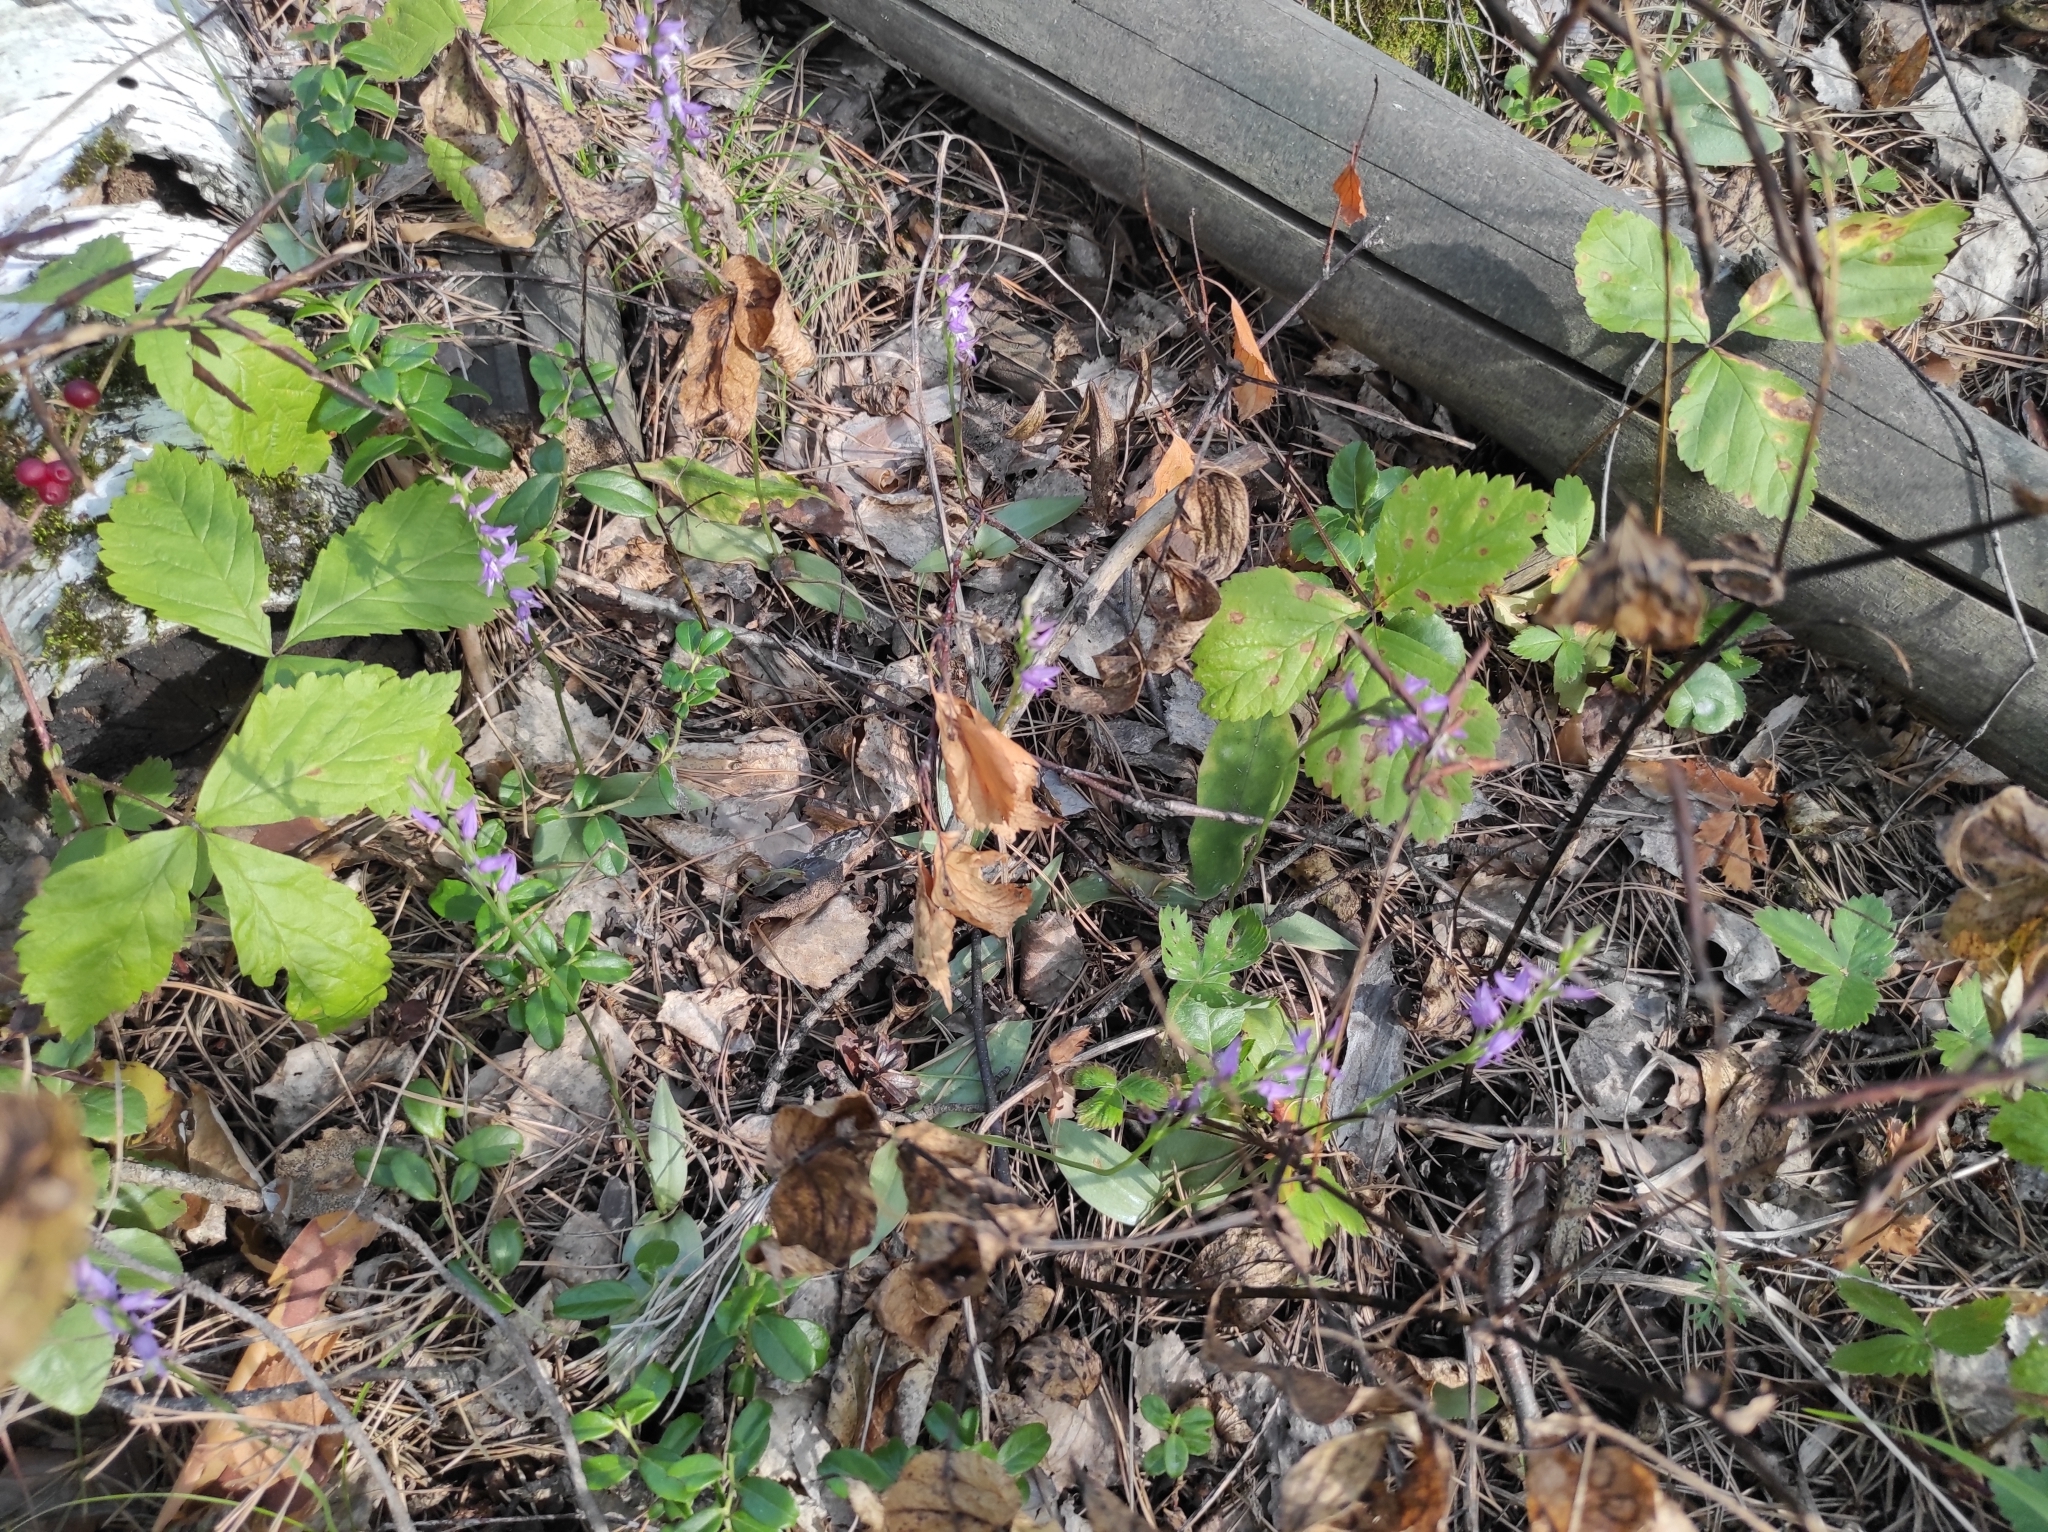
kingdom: Plantae
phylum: Tracheophyta
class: Liliopsida
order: Asparagales
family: Orchidaceae
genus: Hemipilia
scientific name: Hemipilia cucullata
